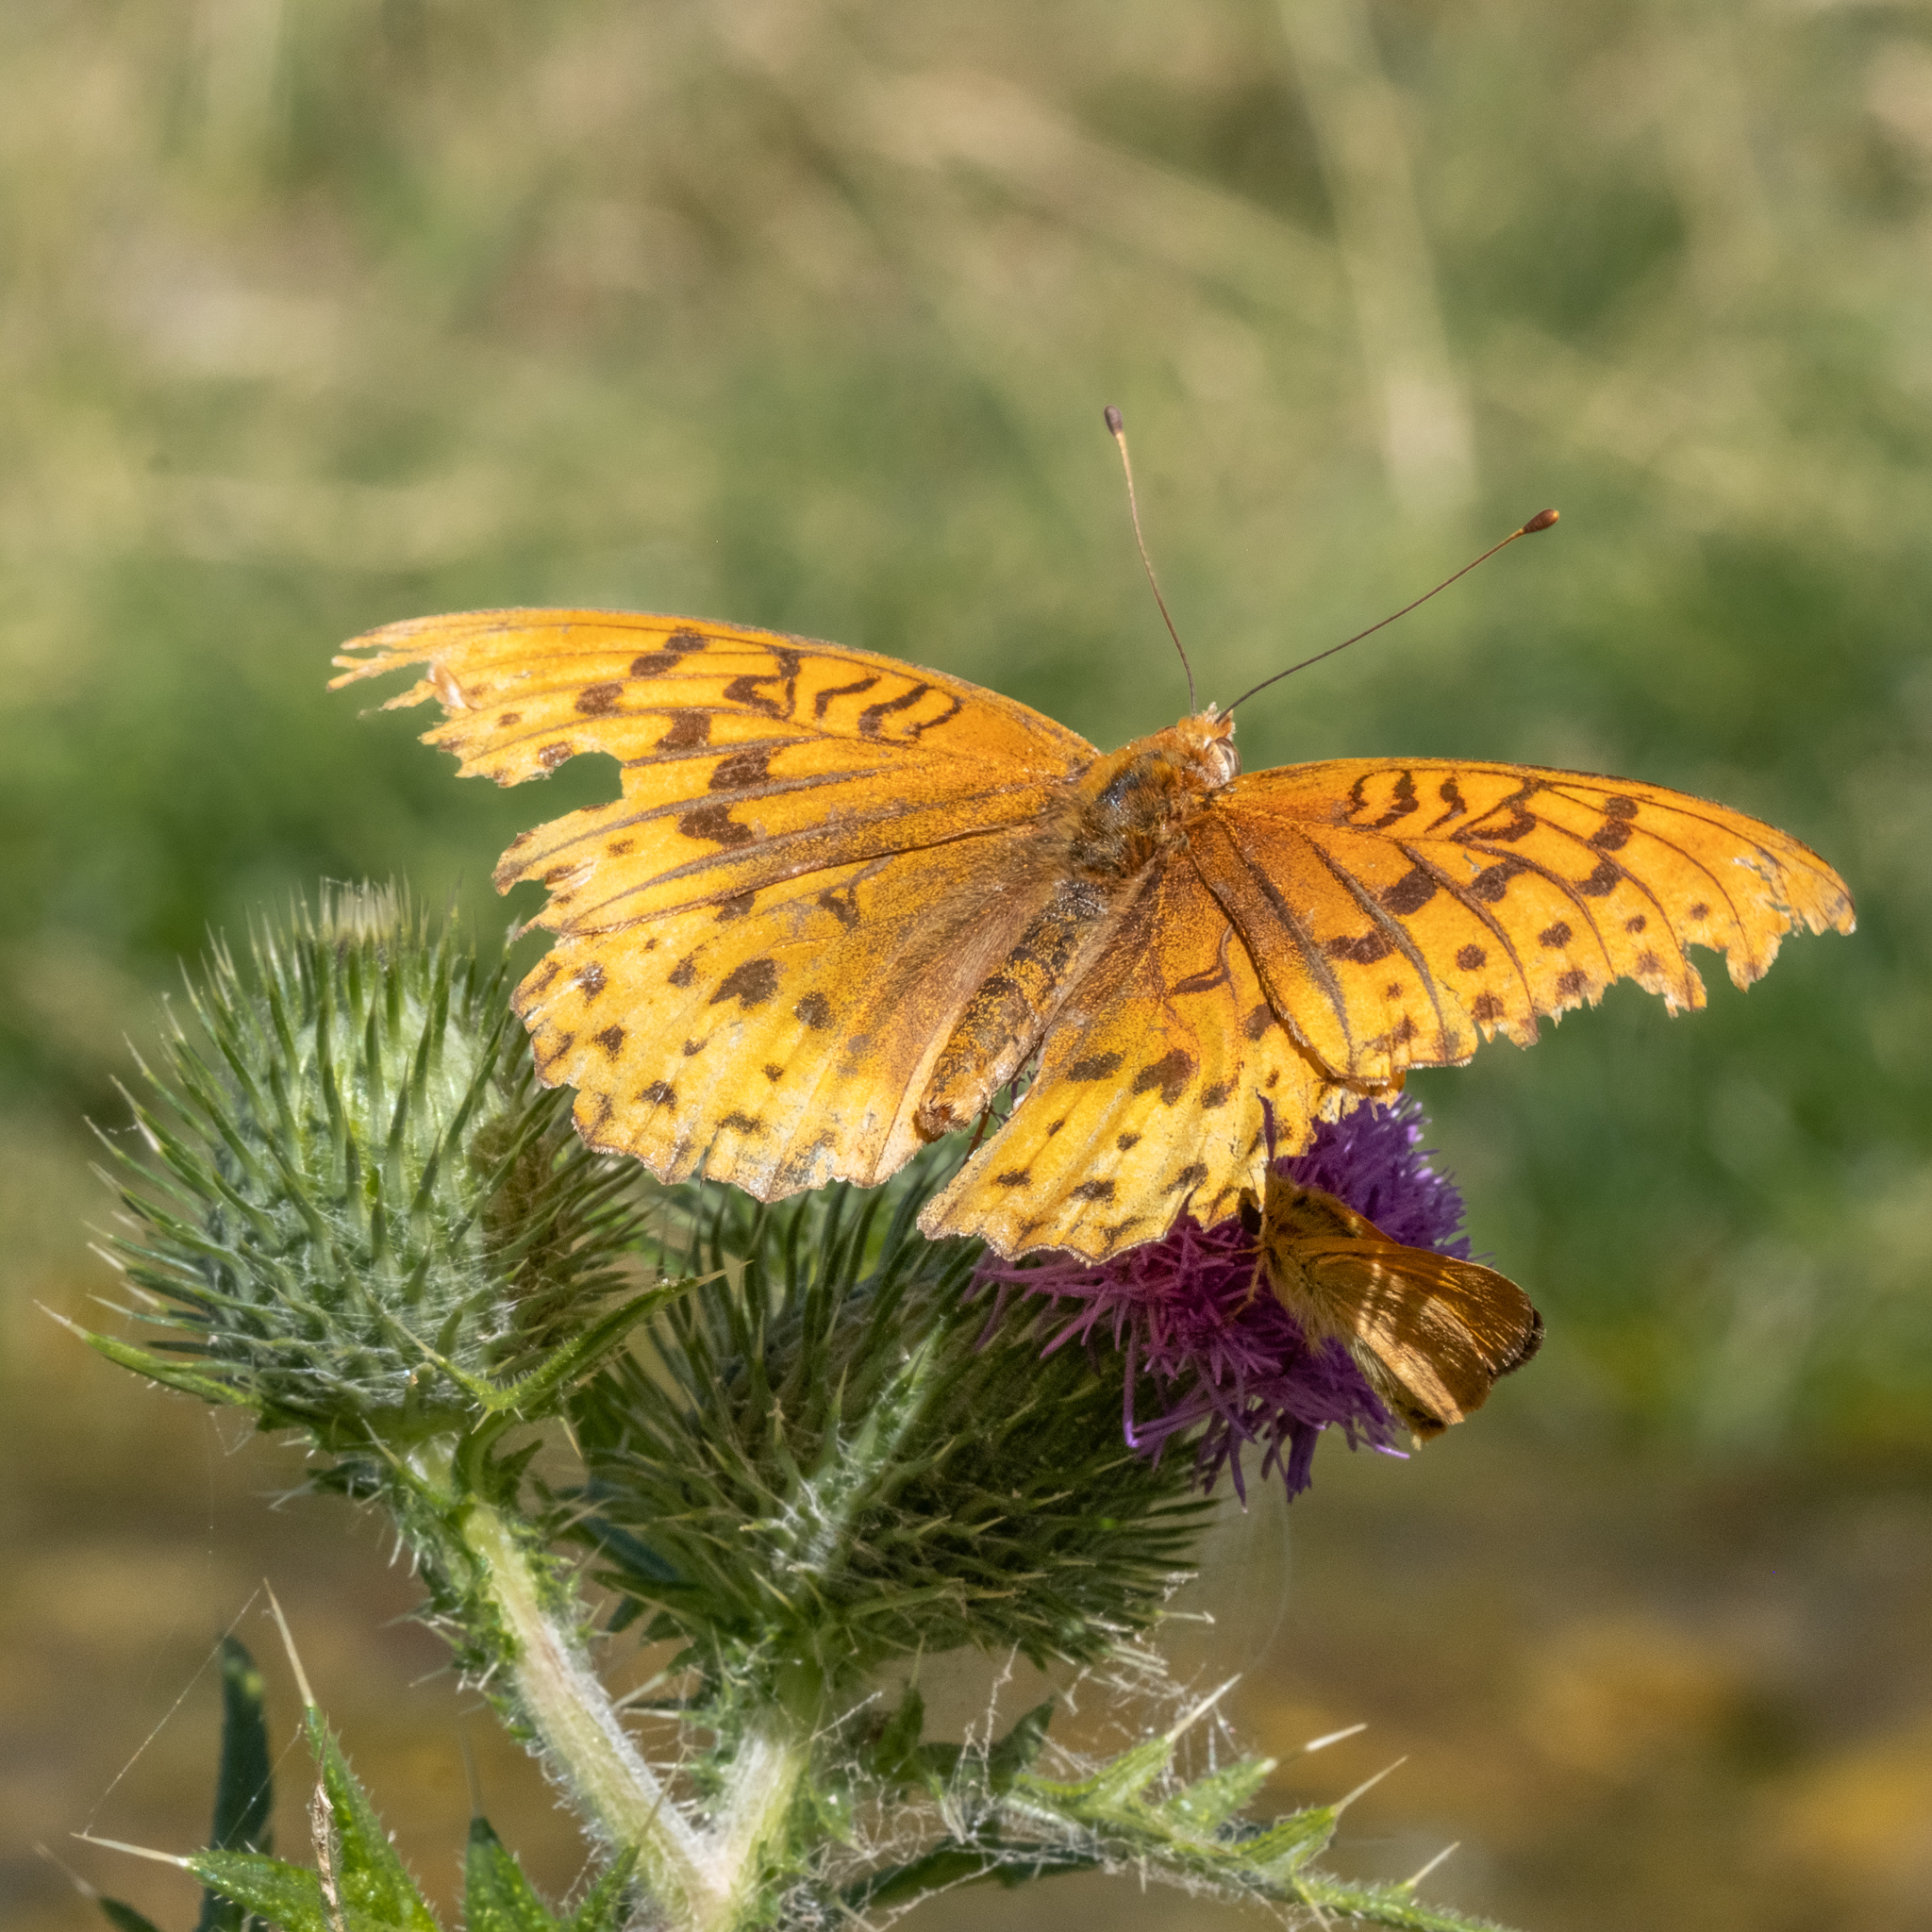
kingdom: Animalia
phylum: Arthropoda
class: Insecta
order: Lepidoptera
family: Nymphalidae
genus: Speyeria
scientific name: Speyeria cybele
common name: Great spangled fritillary
